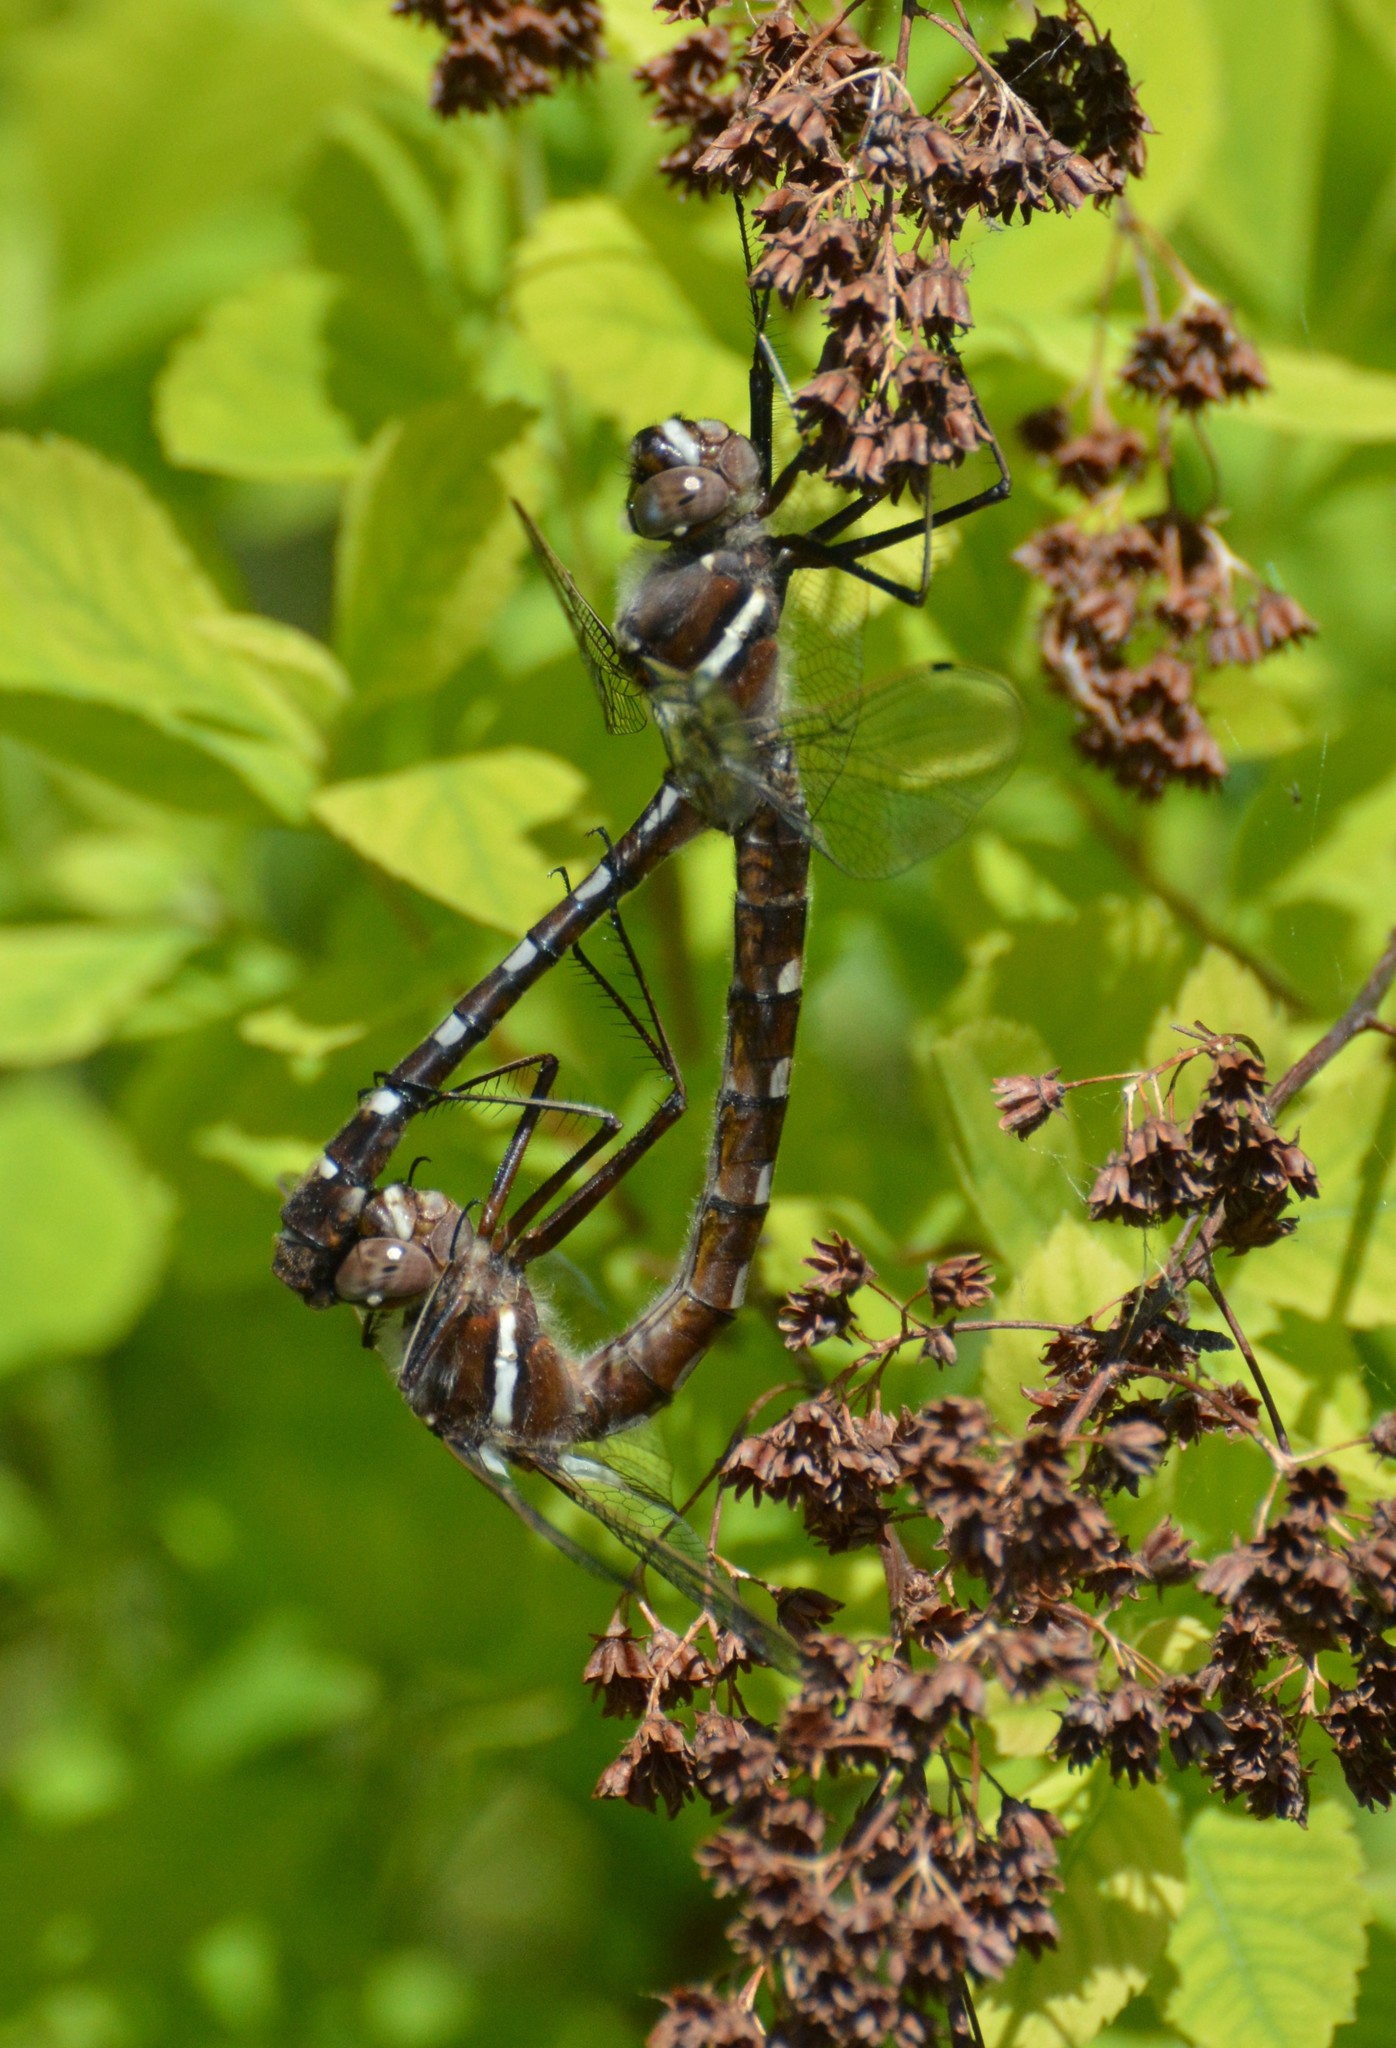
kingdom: Animalia
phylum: Arthropoda
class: Insecta
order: Odonata
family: Macromiidae
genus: Didymops
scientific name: Didymops transversa
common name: Stream cruiser
